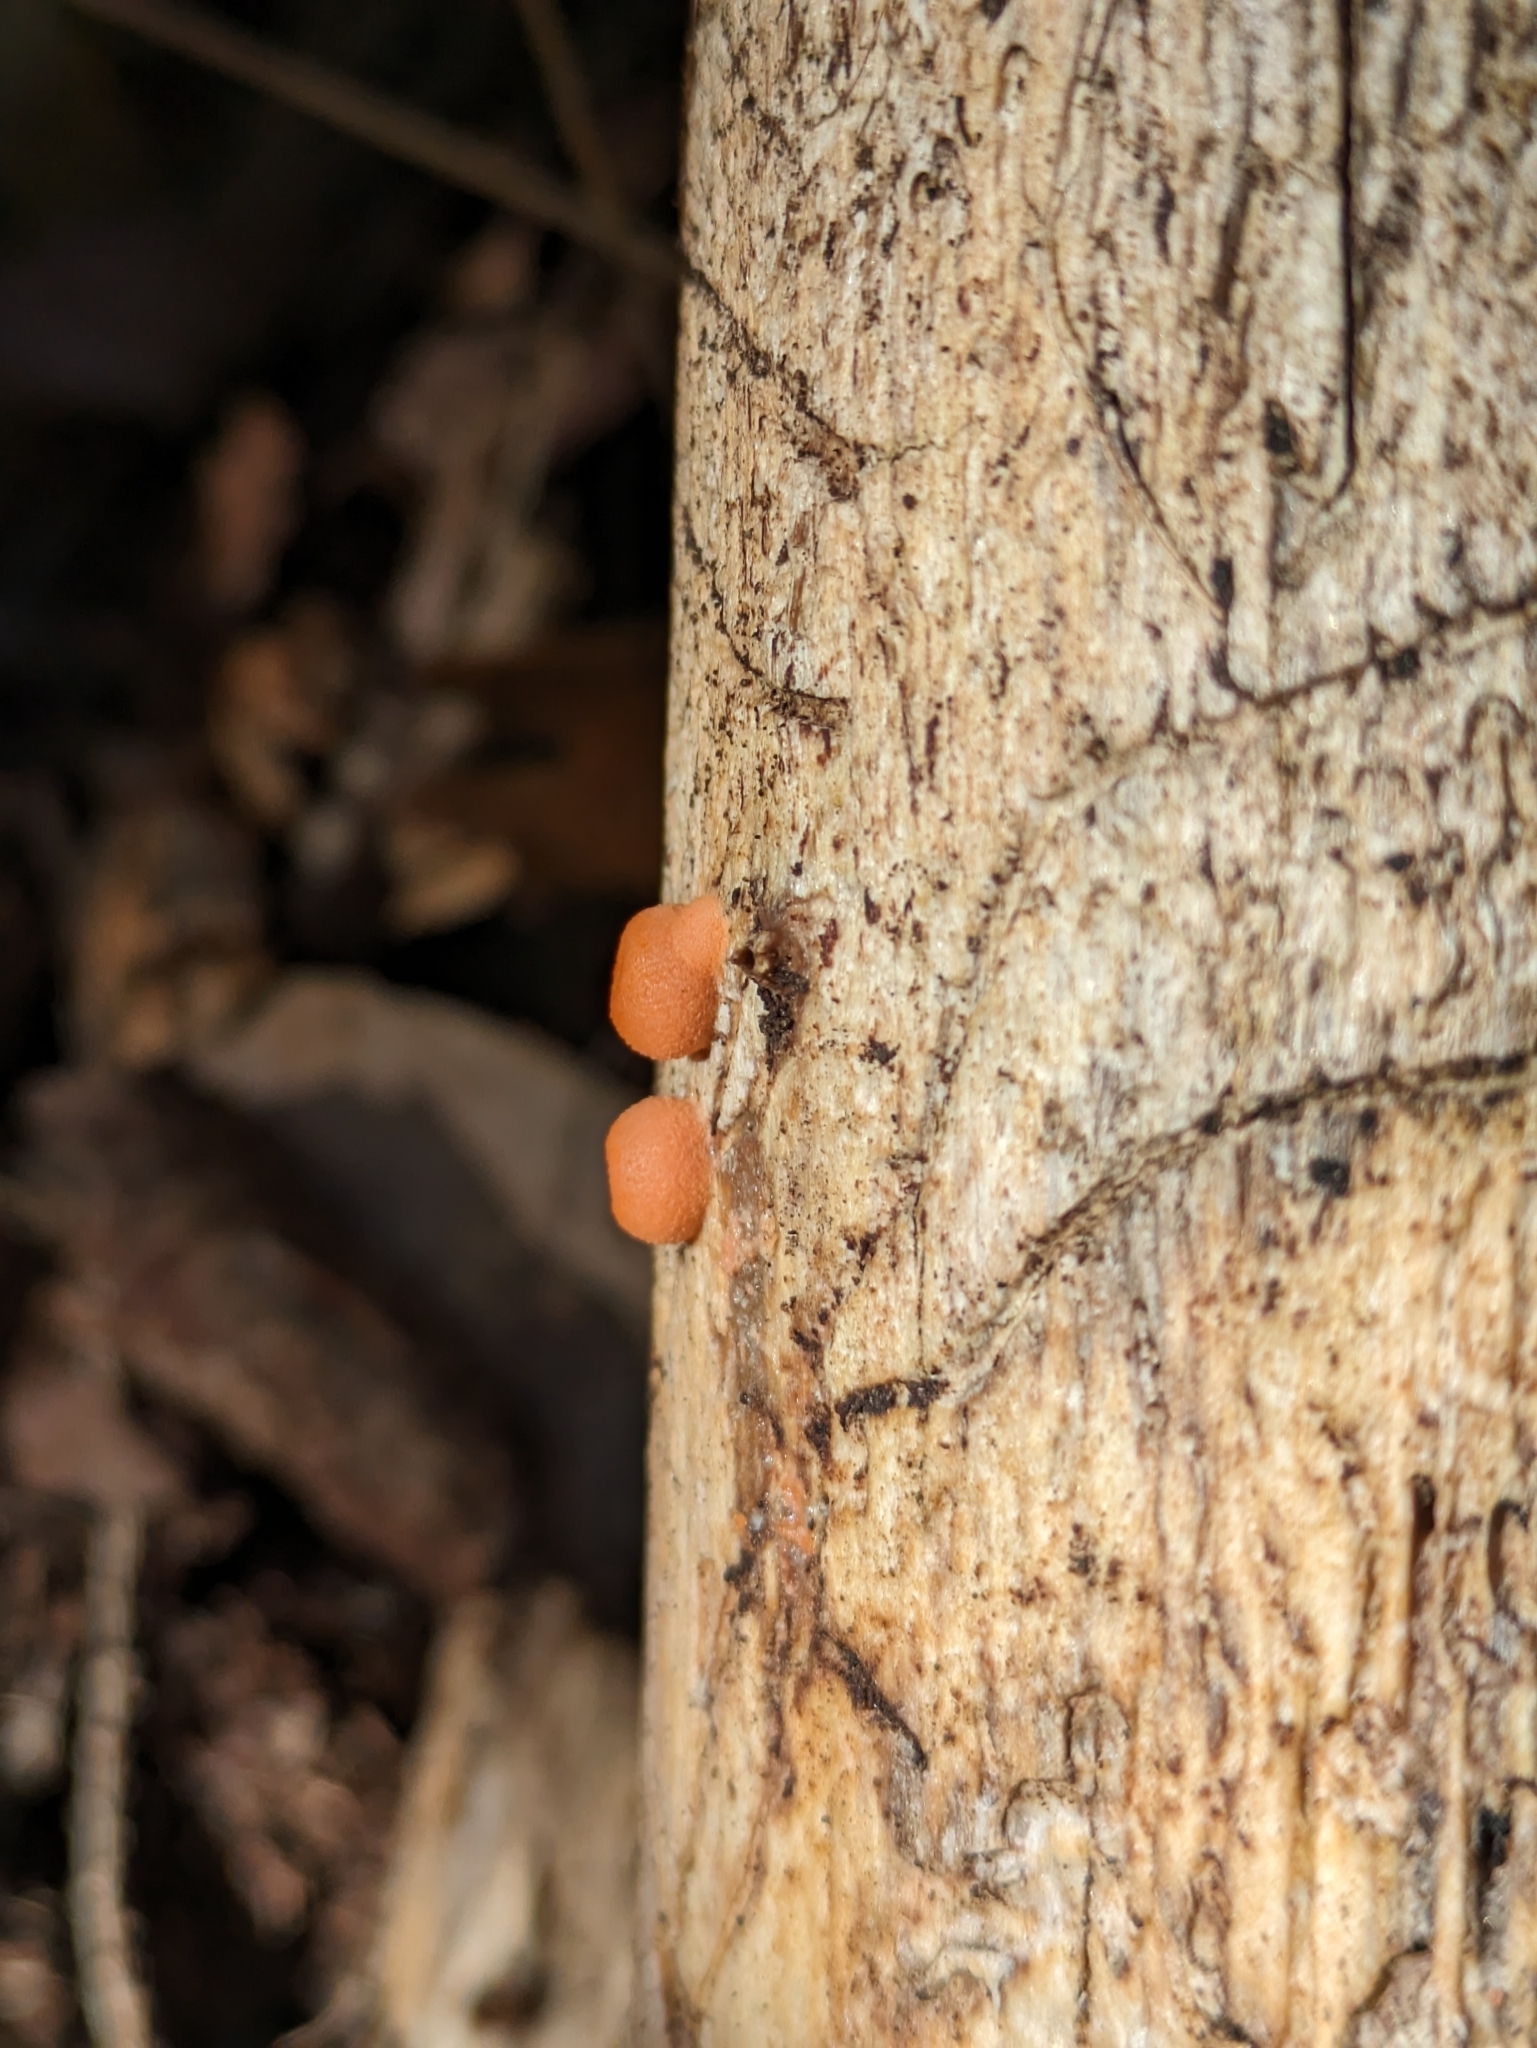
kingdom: Protozoa
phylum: Mycetozoa
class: Myxomycetes
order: Cribrariales
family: Tubiferaceae
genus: Lycogala
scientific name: Lycogala epidendrum
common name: Wolf's milk
